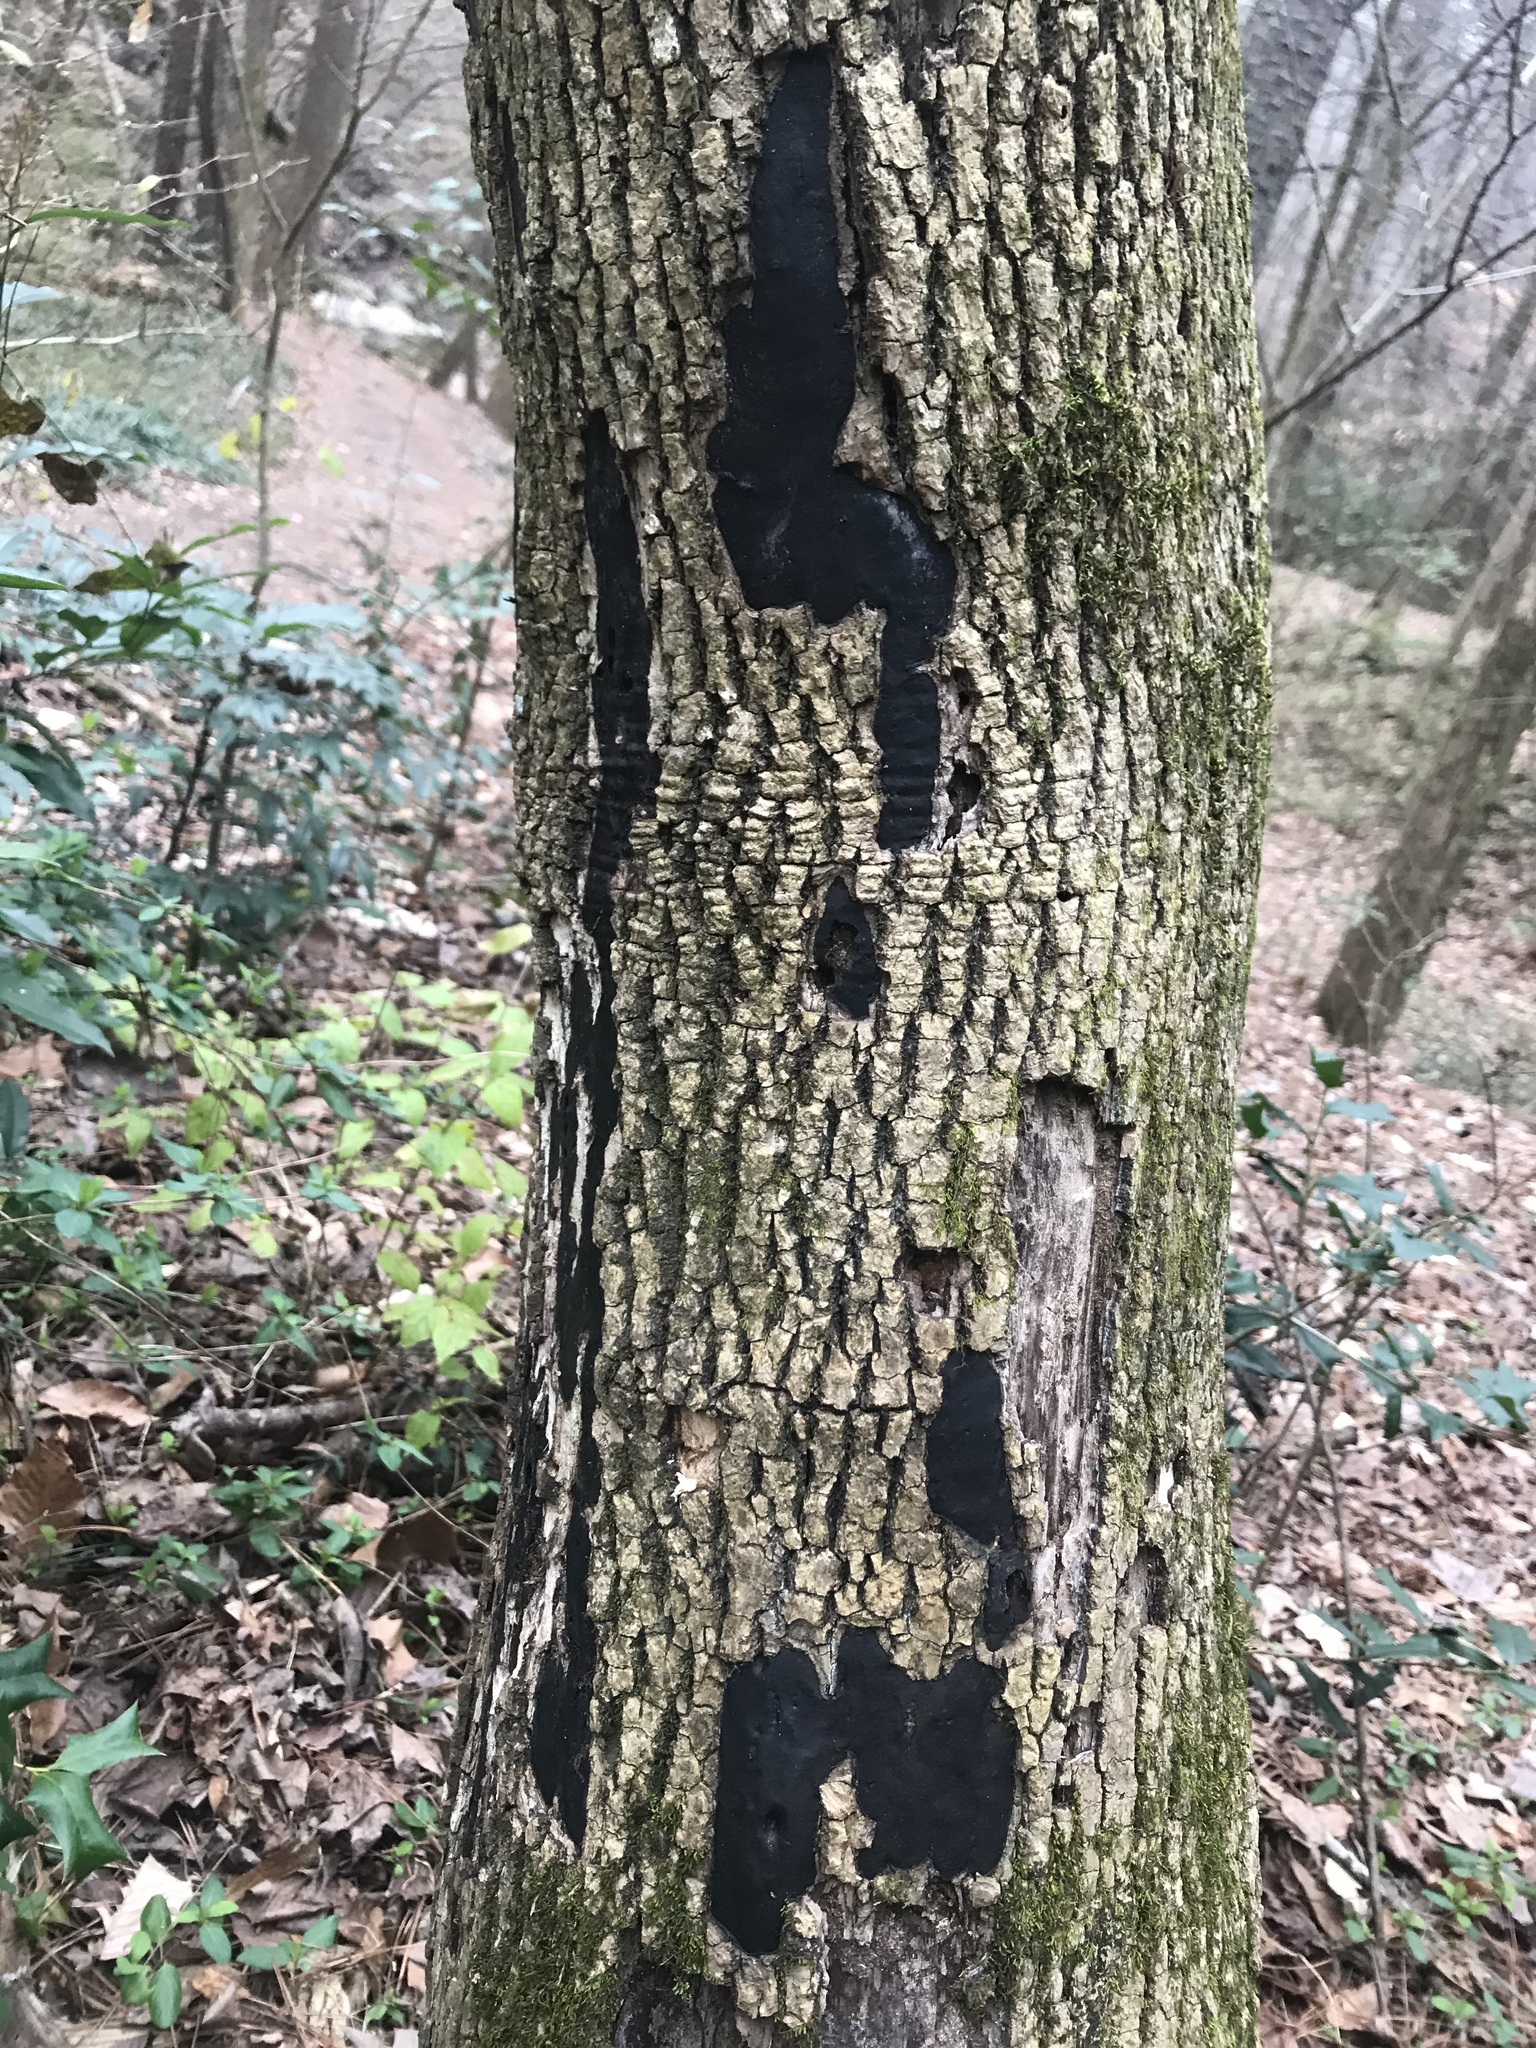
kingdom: Fungi
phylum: Ascomycota
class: Sordariomycetes
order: Xylariales
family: Graphostromataceae
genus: Biscogniauxia
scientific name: Biscogniauxia atropunctata
